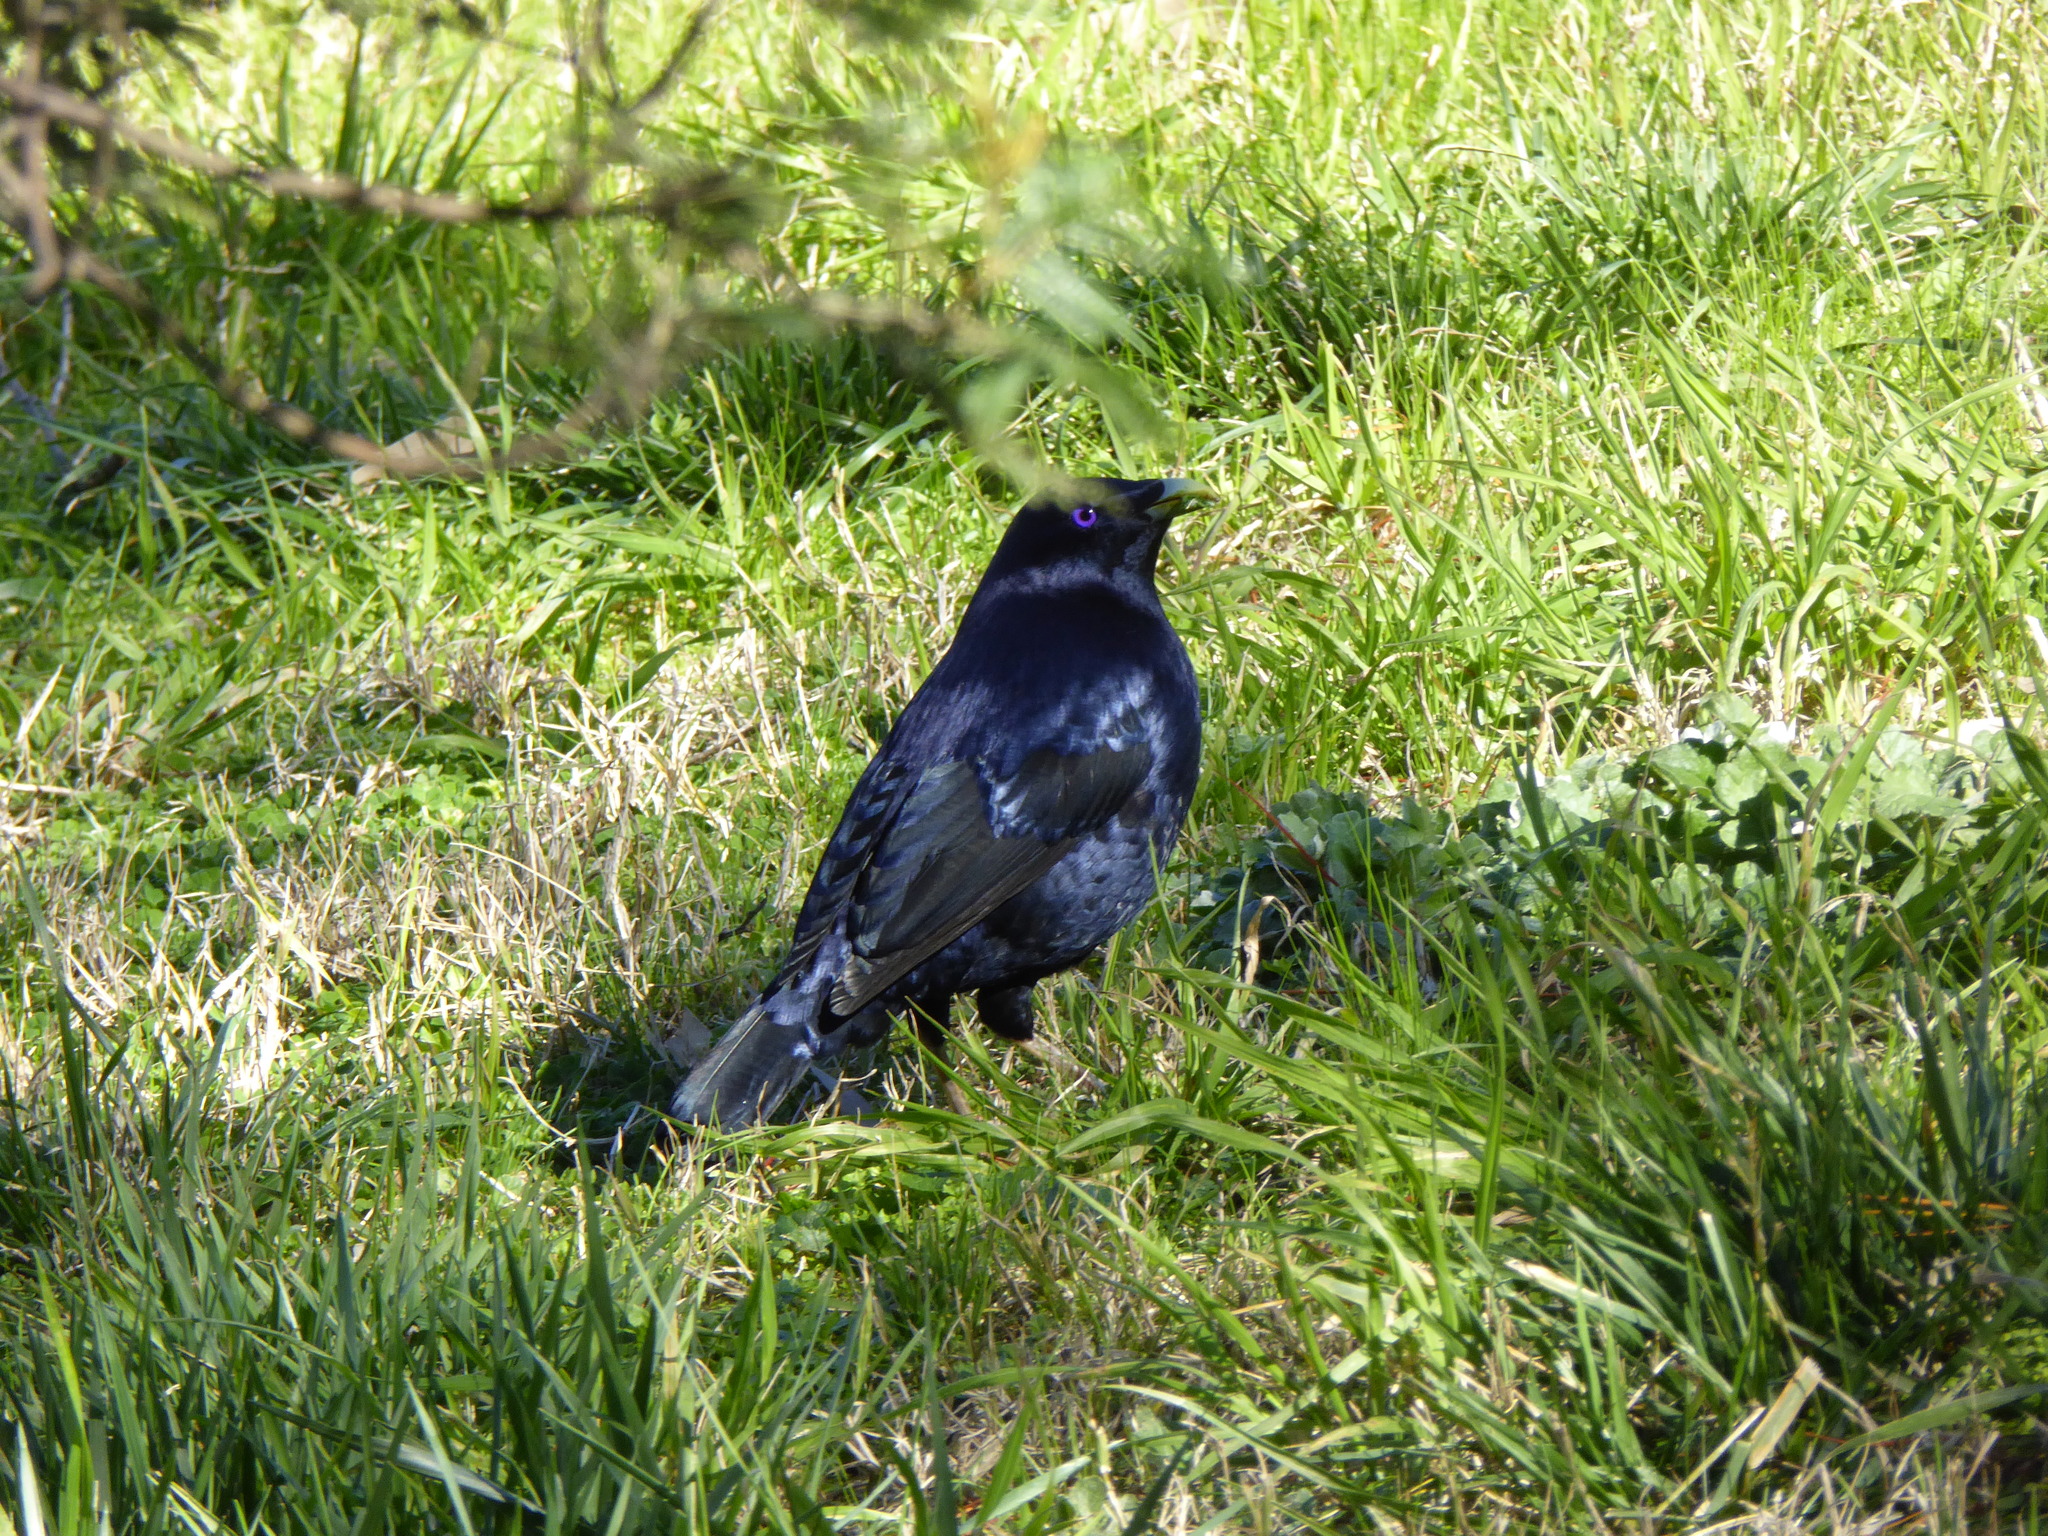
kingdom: Animalia
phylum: Chordata
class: Aves
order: Passeriformes
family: Ptilonorhynchidae
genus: Ptilonorhynchus
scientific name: Ptilonorhynchus violaceus
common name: Satin bowerbird
